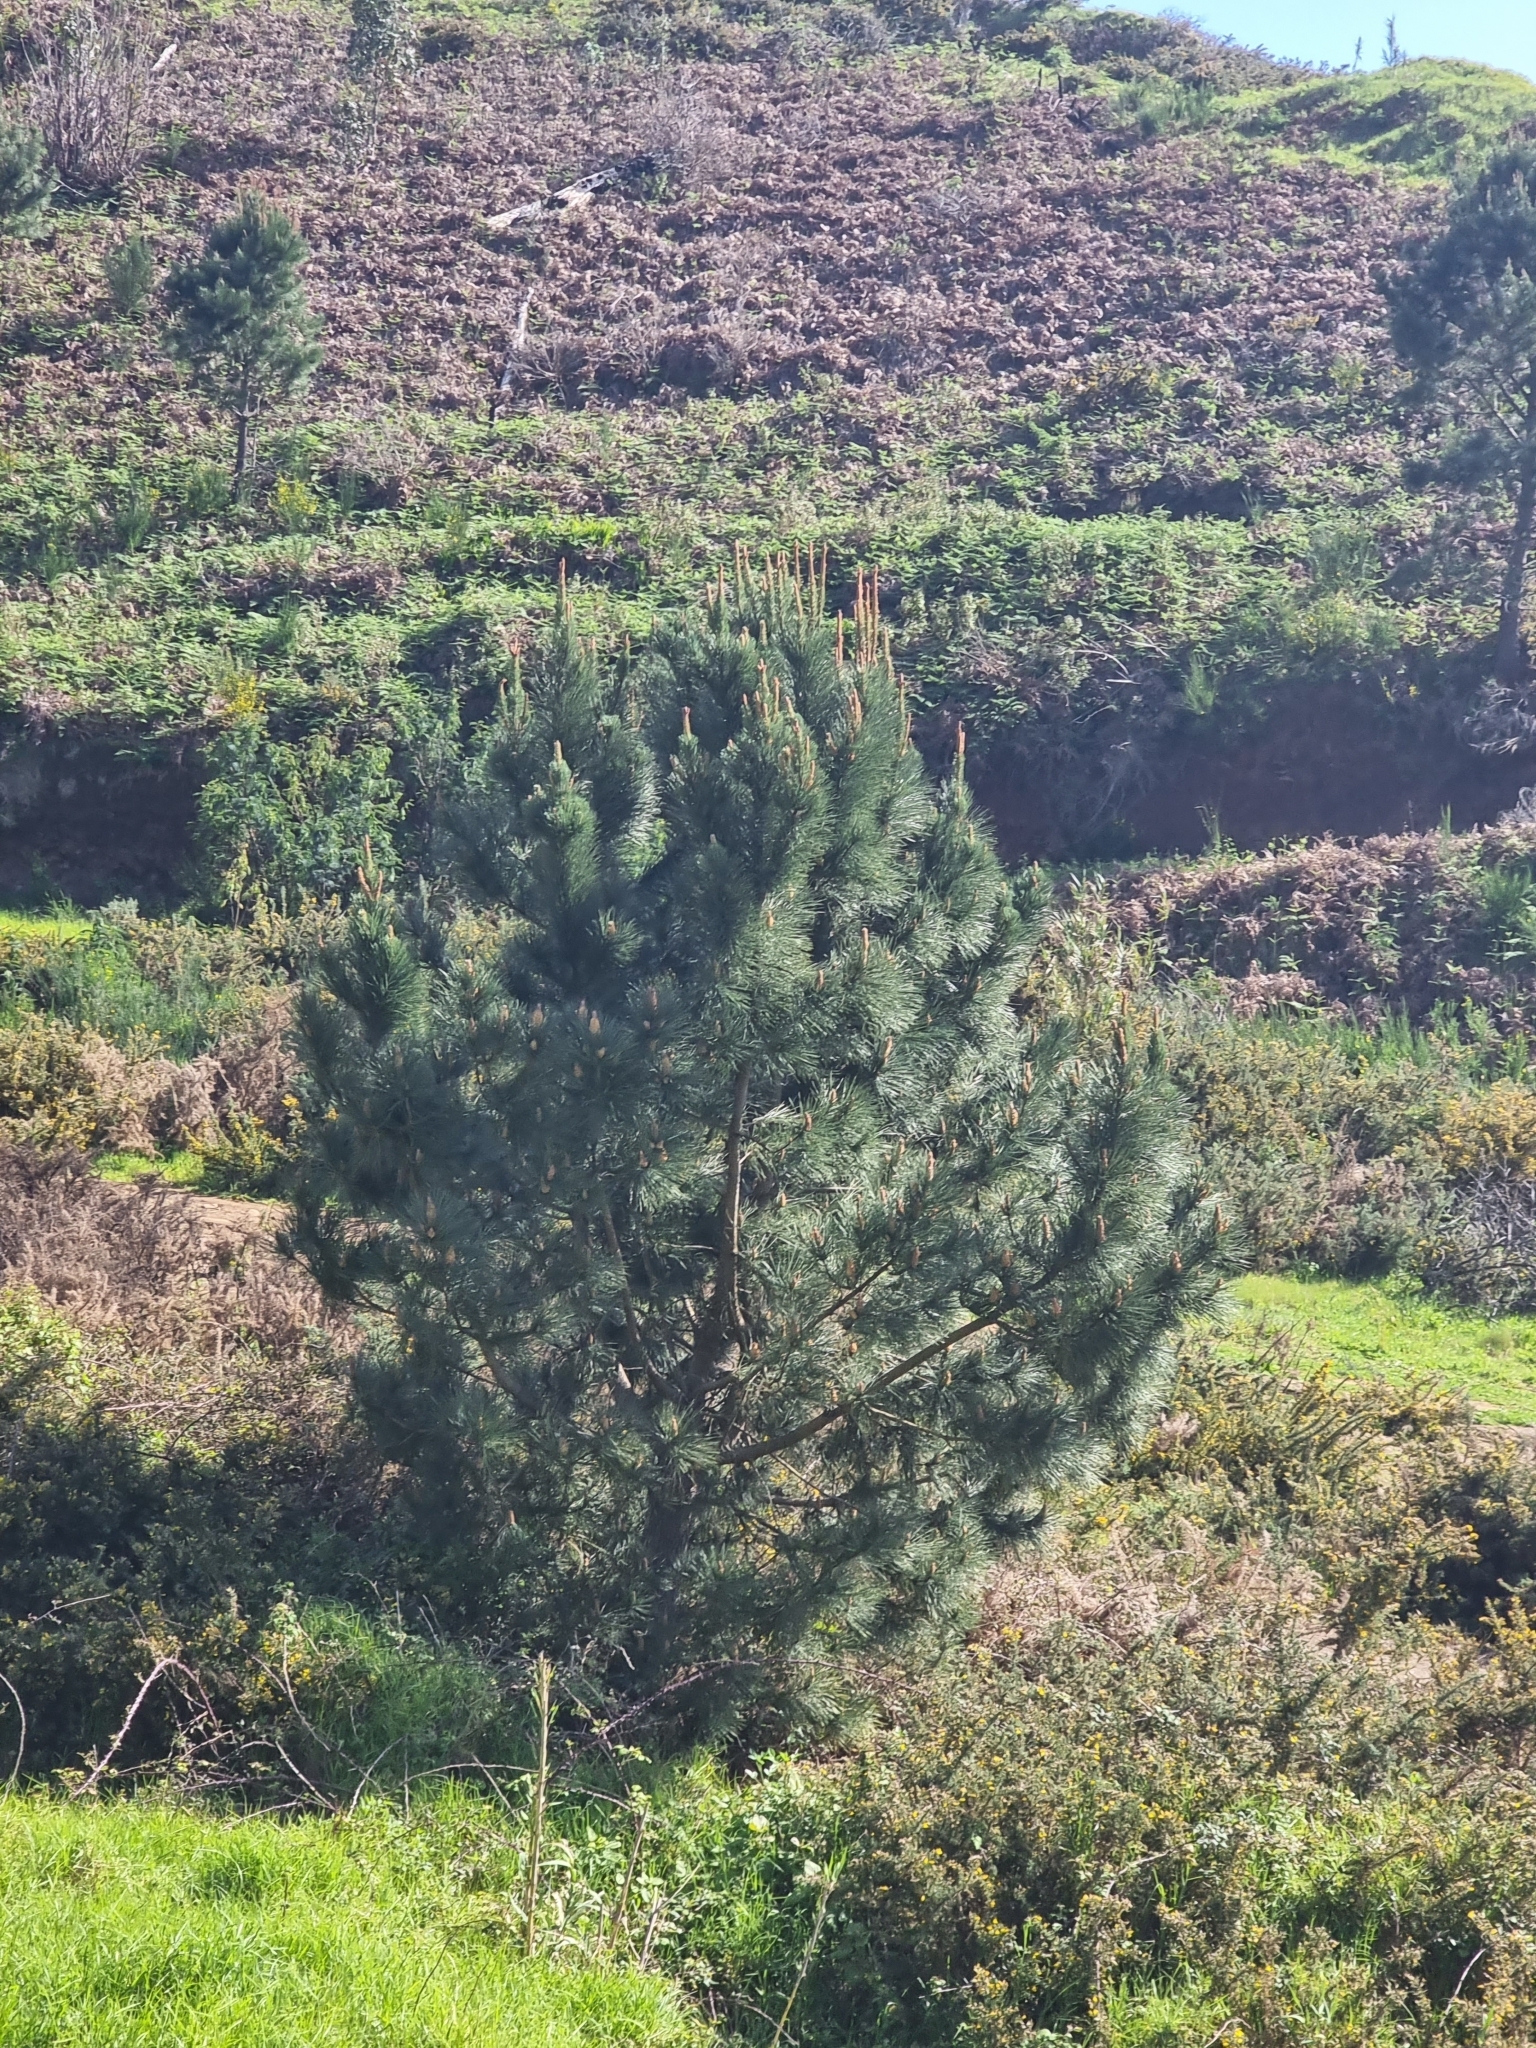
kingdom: Plantae
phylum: Tracheophyta
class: Pinopsida
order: Pinales
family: Pinaceae
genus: Pinus
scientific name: Pinus pinaster
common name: Maritime pine
